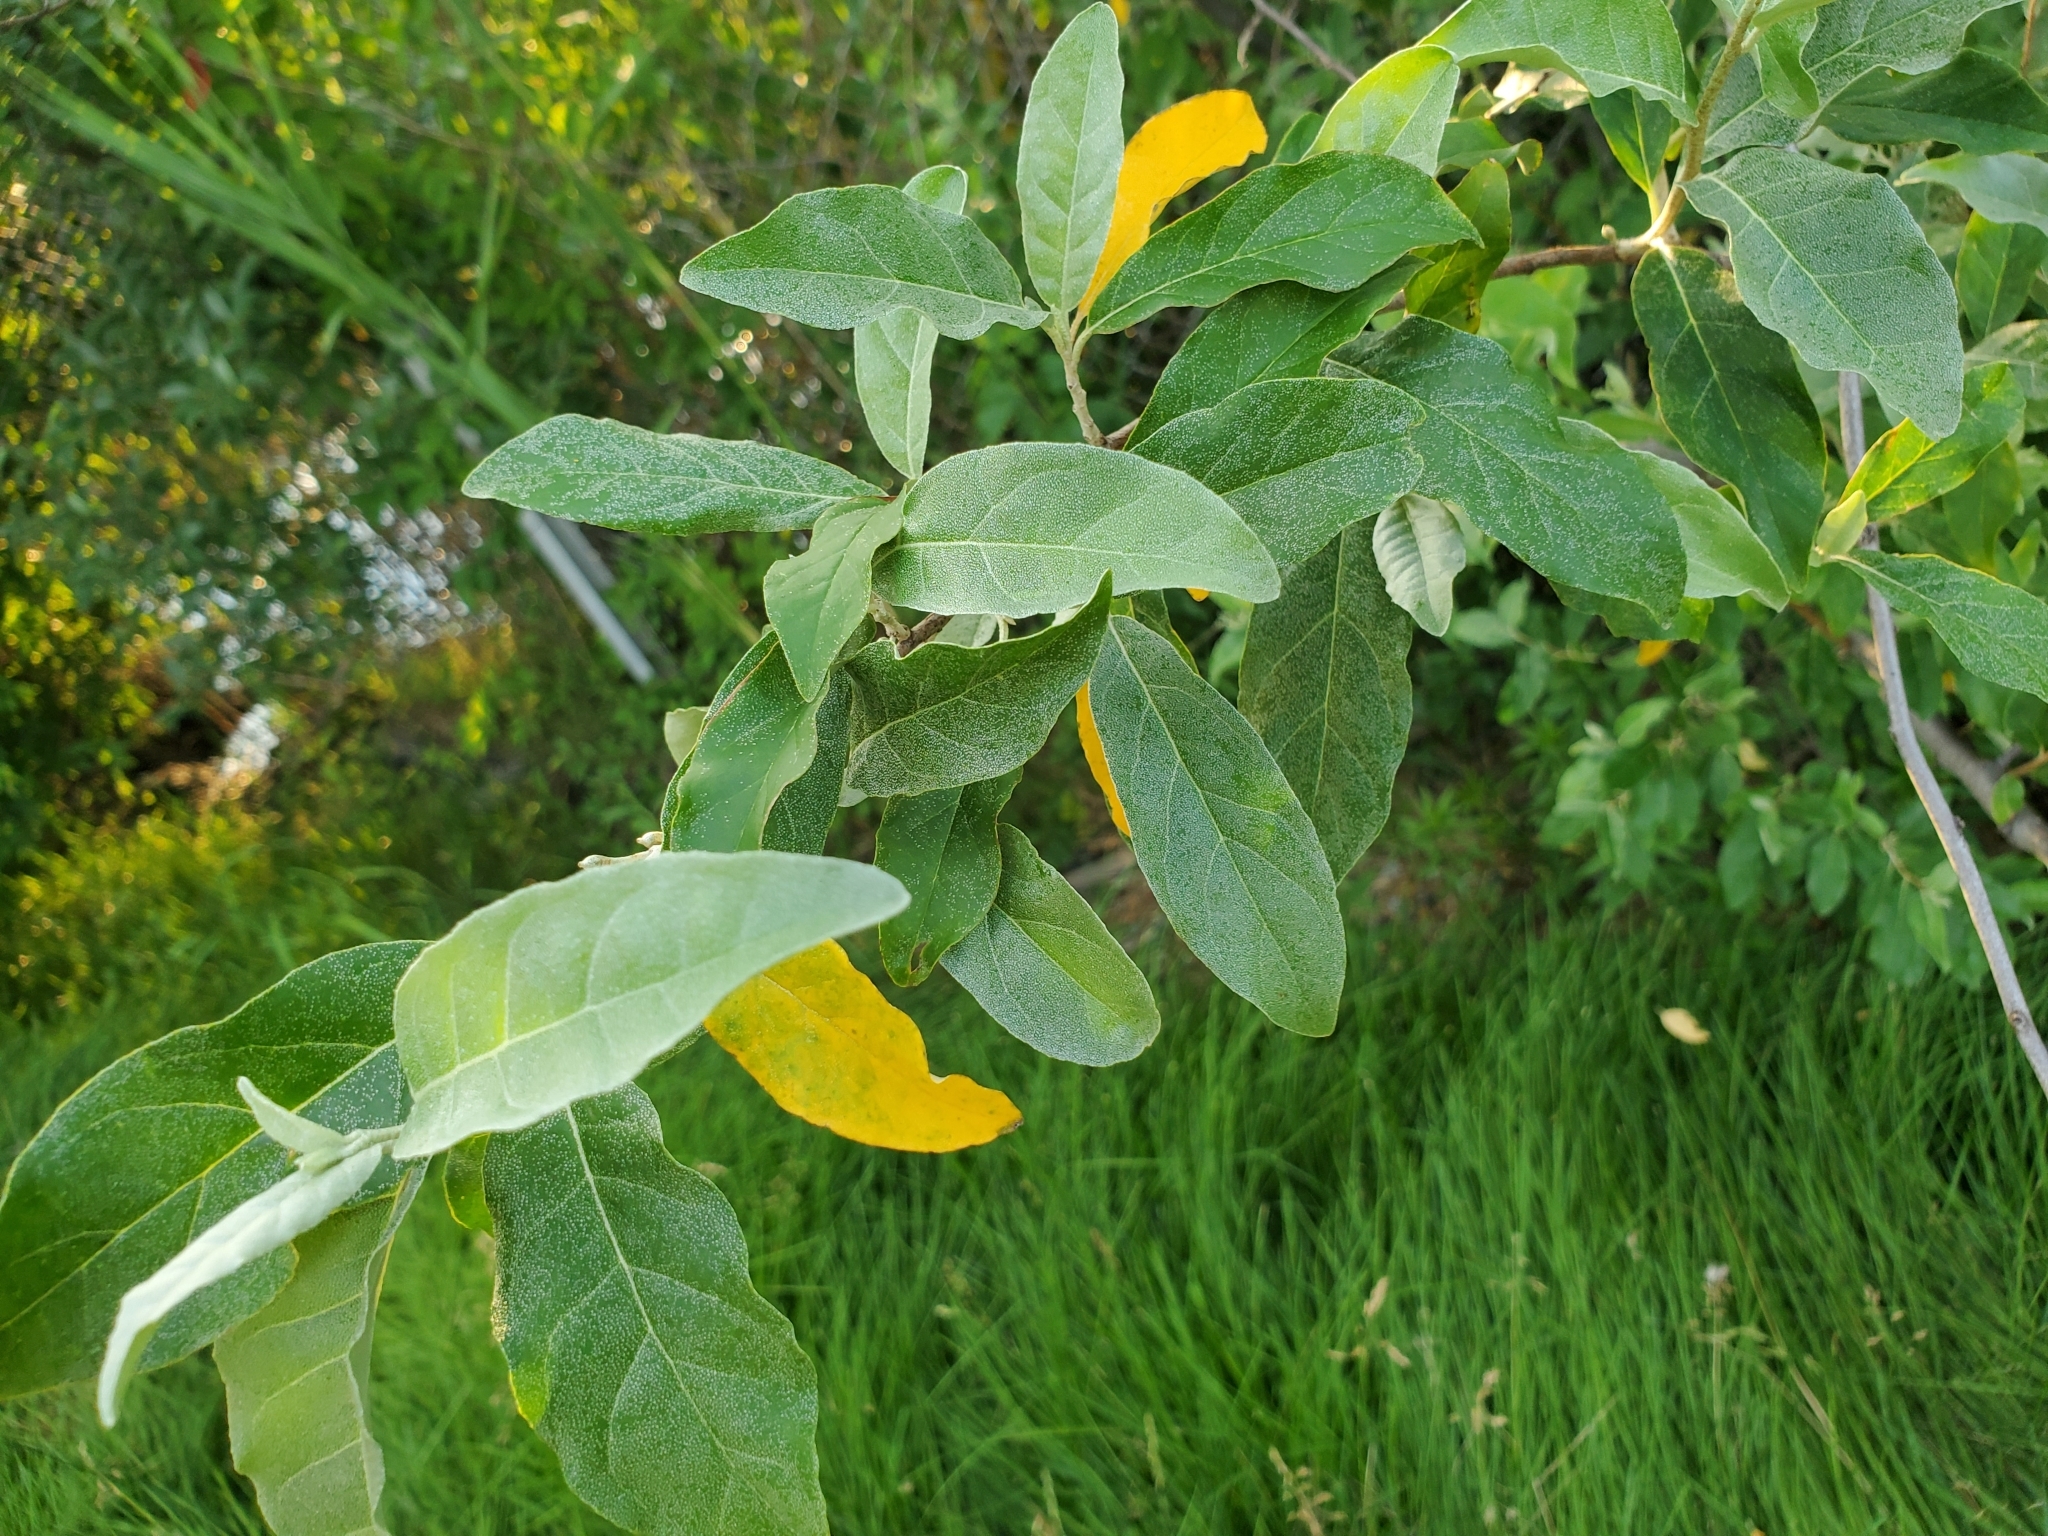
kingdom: Plantae
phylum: Tracheophyta
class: Magnoliopsida
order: Rosales
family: Elaeagnaceae
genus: Elaeagnus
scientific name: Elaeagnus umbellata
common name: Autumn olive
